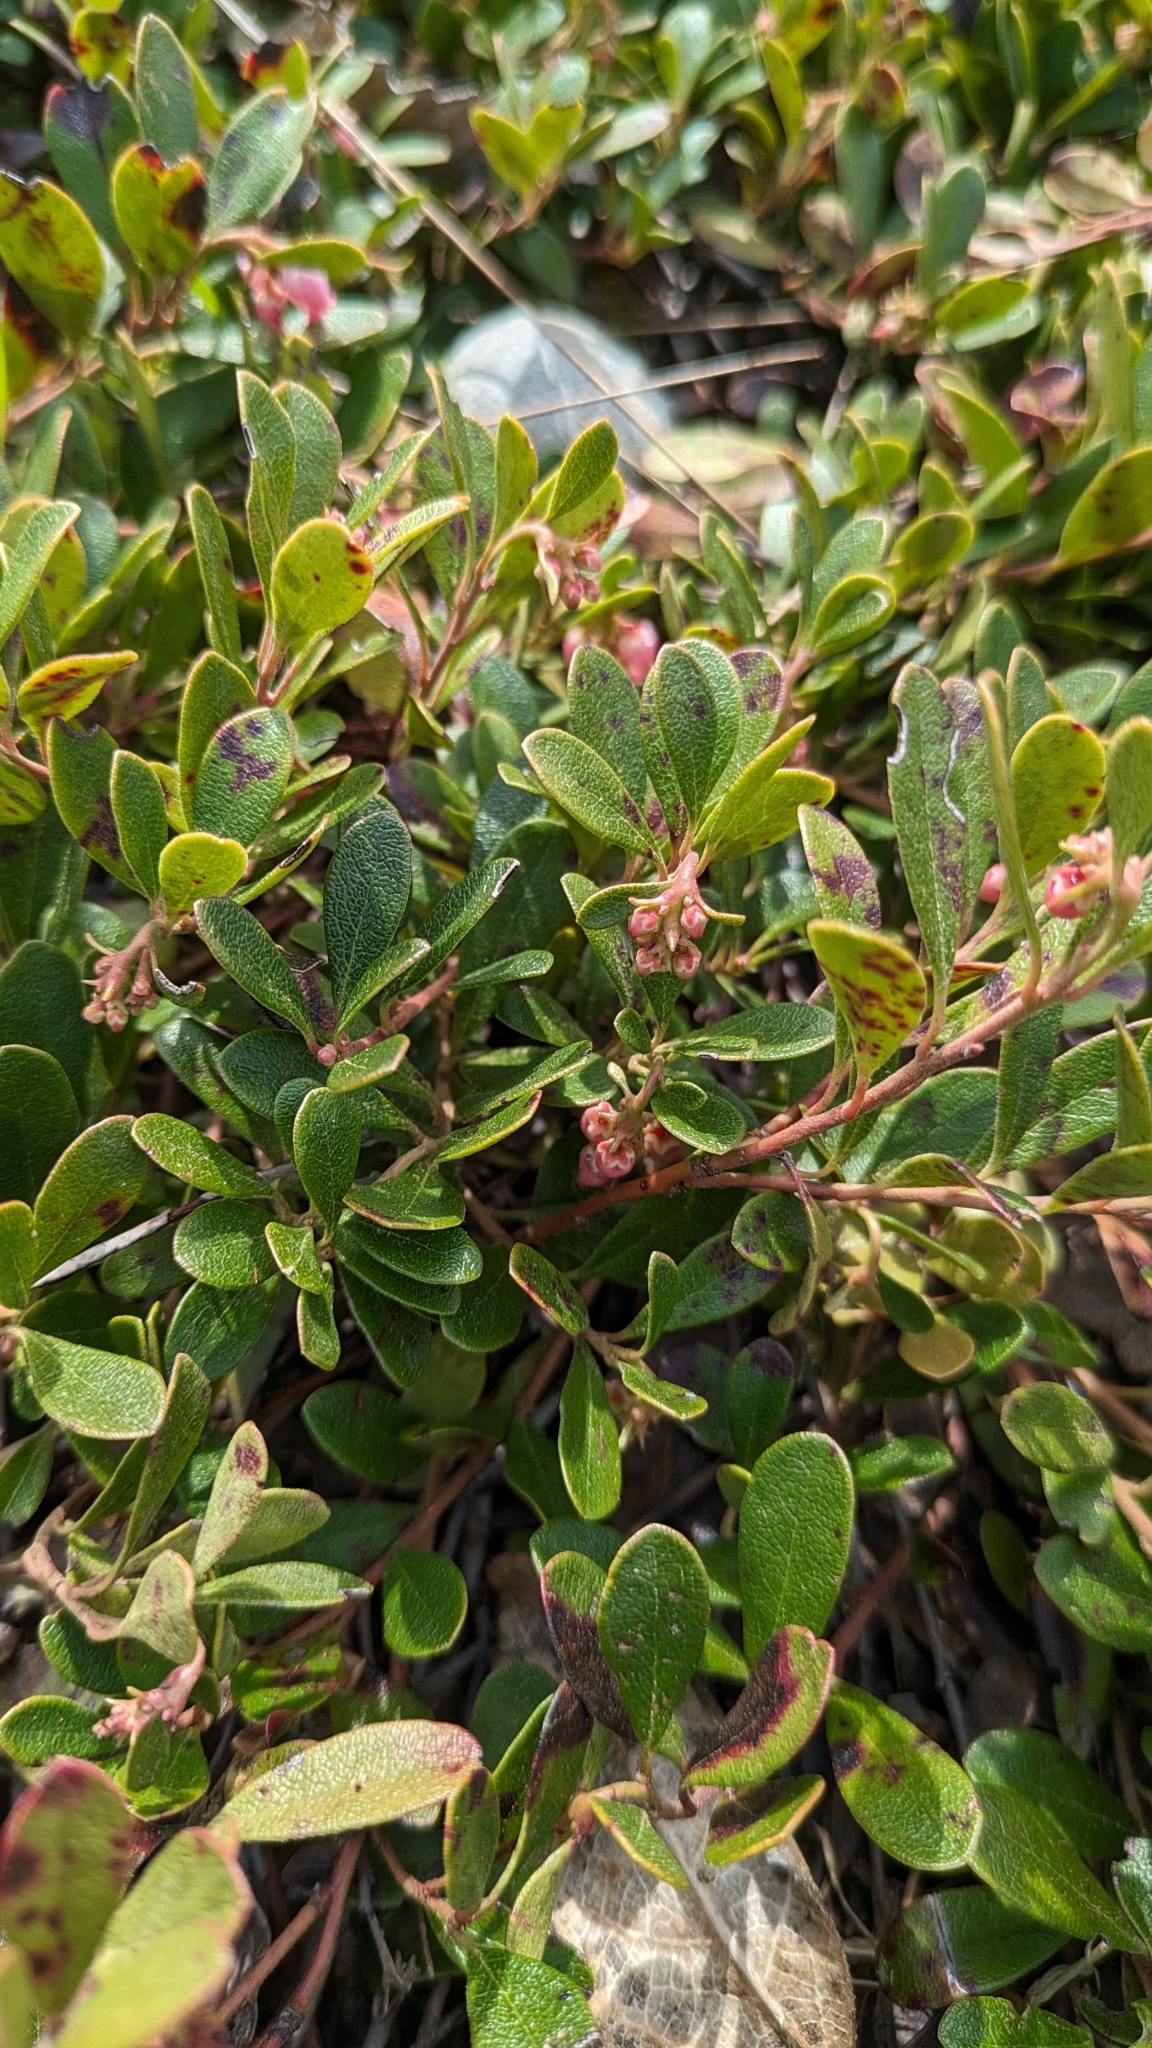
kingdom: Plantae
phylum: Tracheophyta
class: Magnoliopsida
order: Ericales
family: Ericaceae
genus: Arctostaphylos
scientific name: Arctostaphylos uva-ursi
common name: Bearberry
